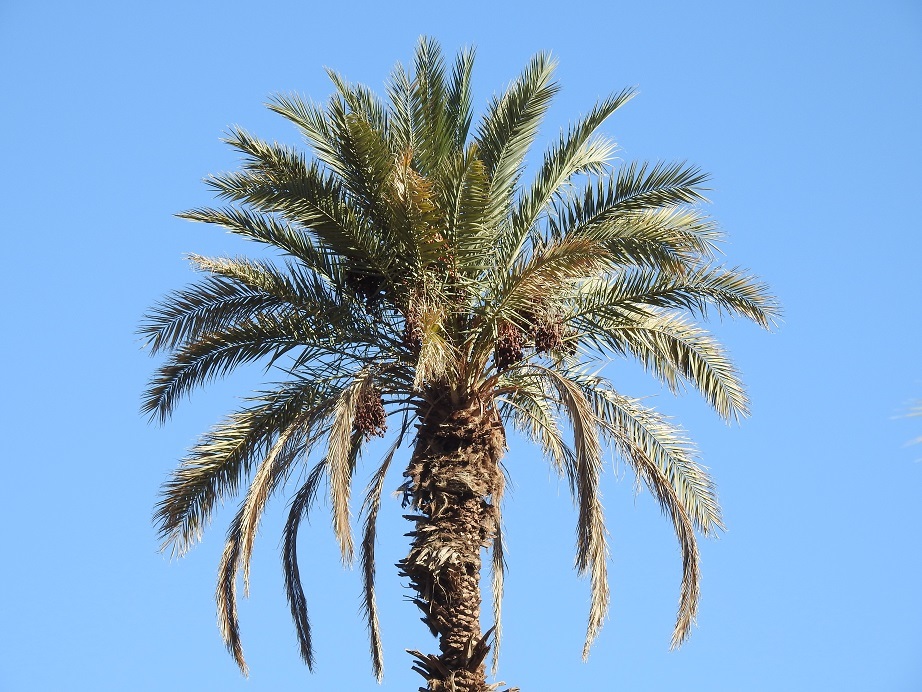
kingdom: Plantae
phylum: Tracheophyta
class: Liliopsida
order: Arecales
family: Arecaceae
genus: Phoenix
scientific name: Phoenix dactylifera
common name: Date palm
